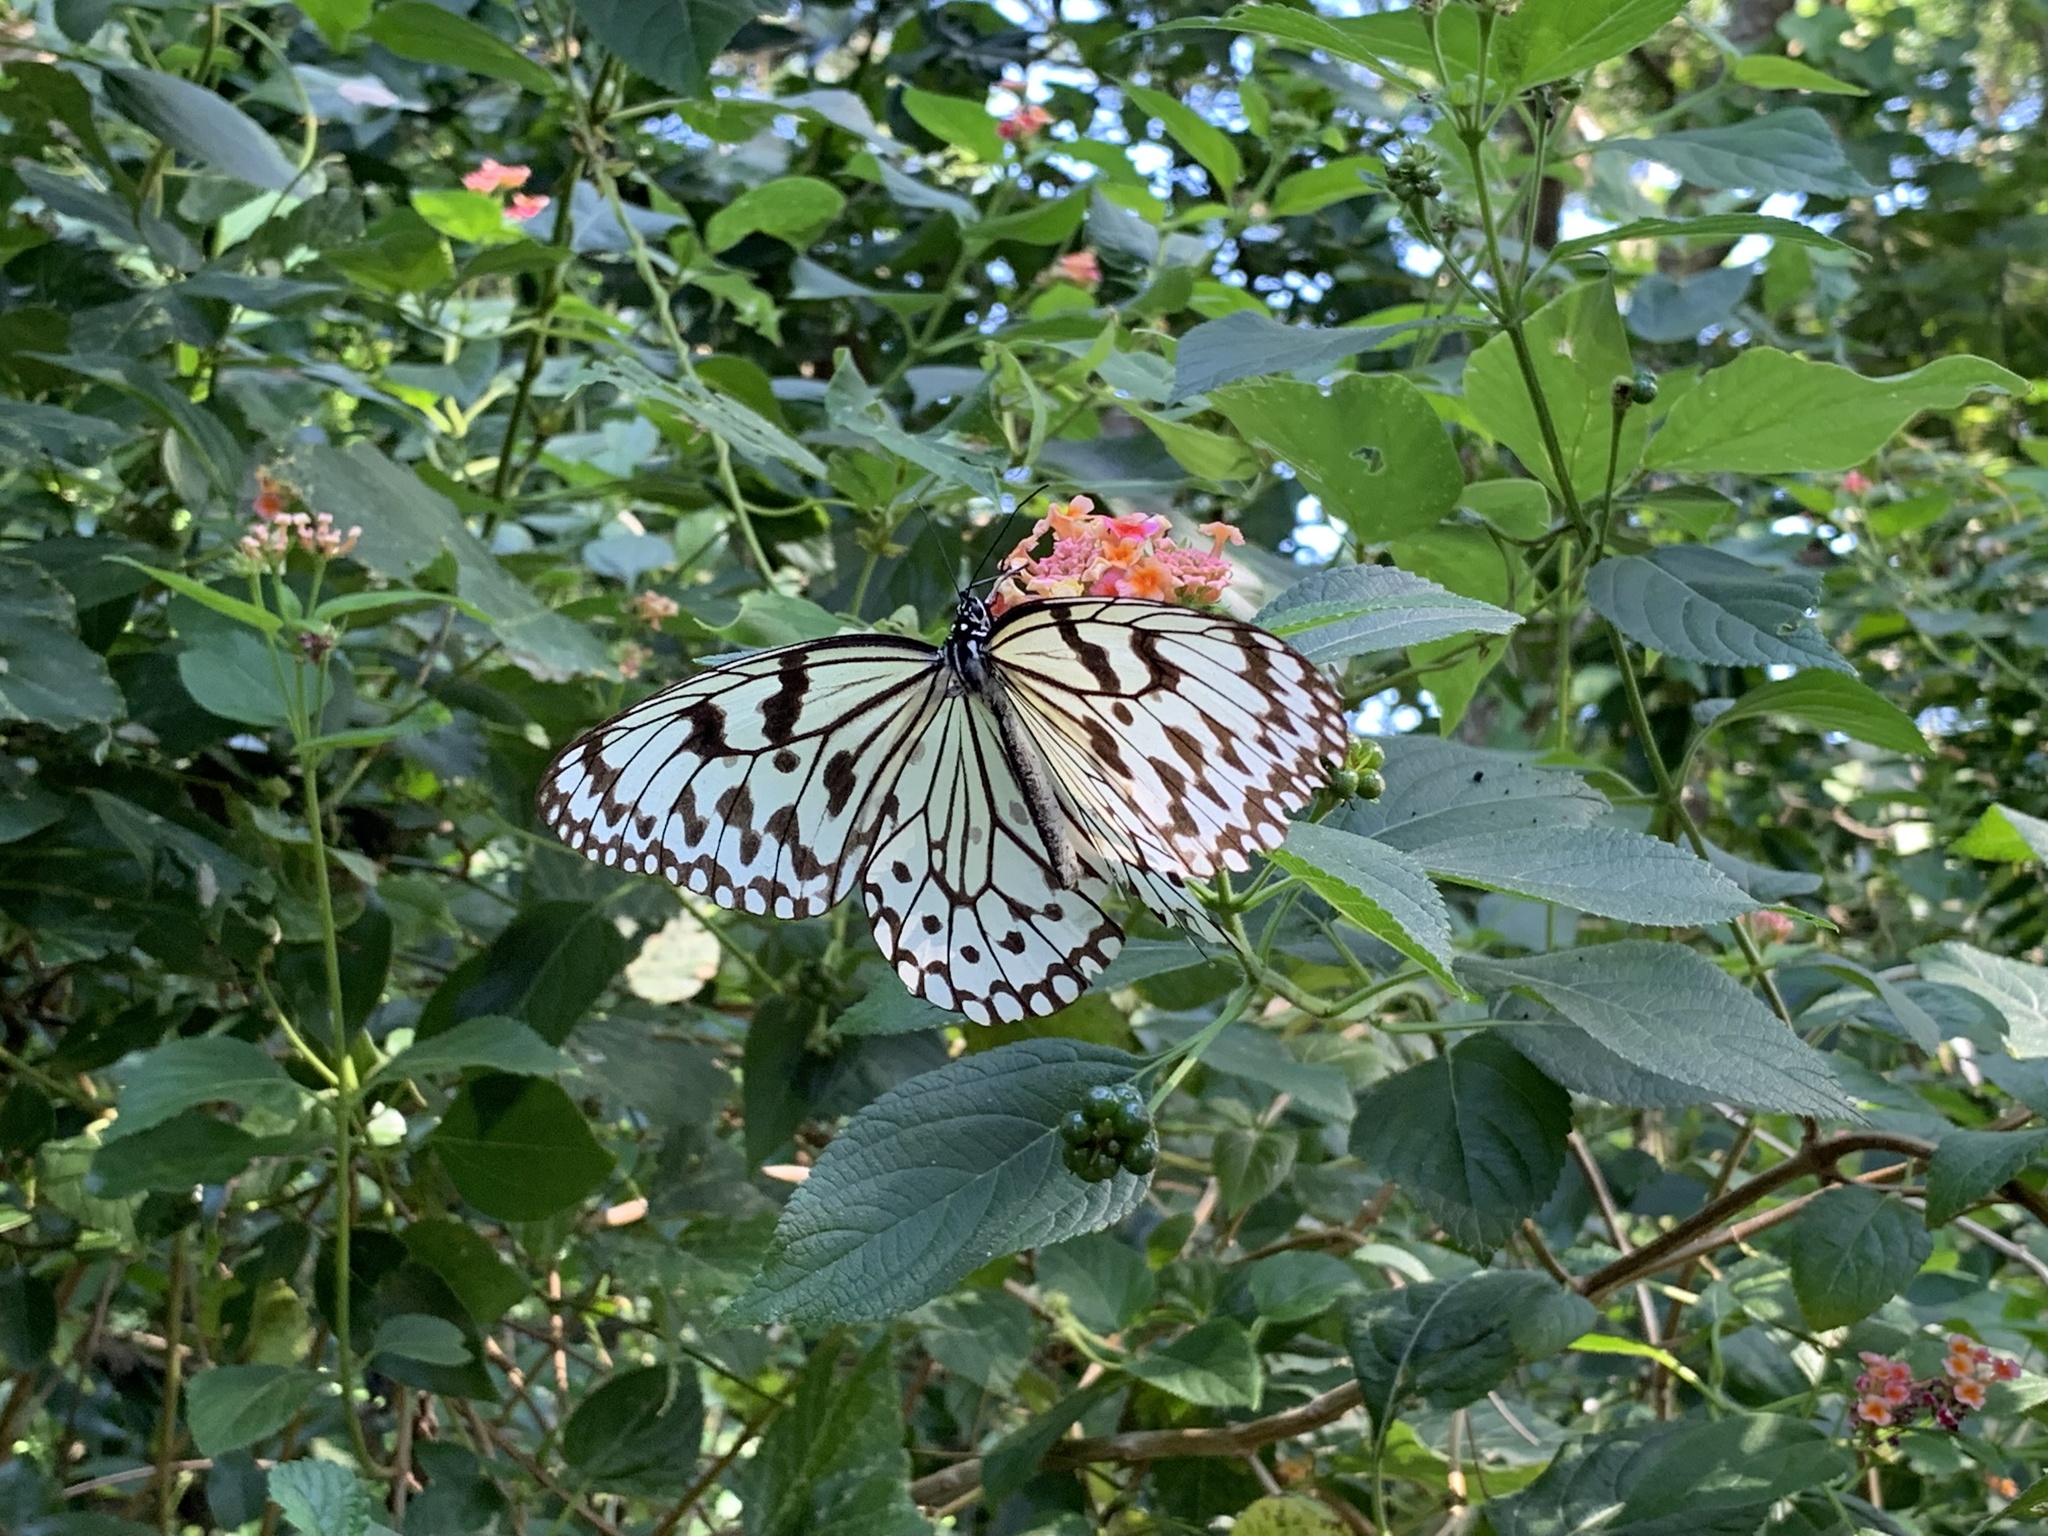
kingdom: Animalia
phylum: Arthropoda
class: Insecta
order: Lepidoptera
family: Nymphalidae
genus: Idea
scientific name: Idea leuconoe
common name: Rice paper butterfly
